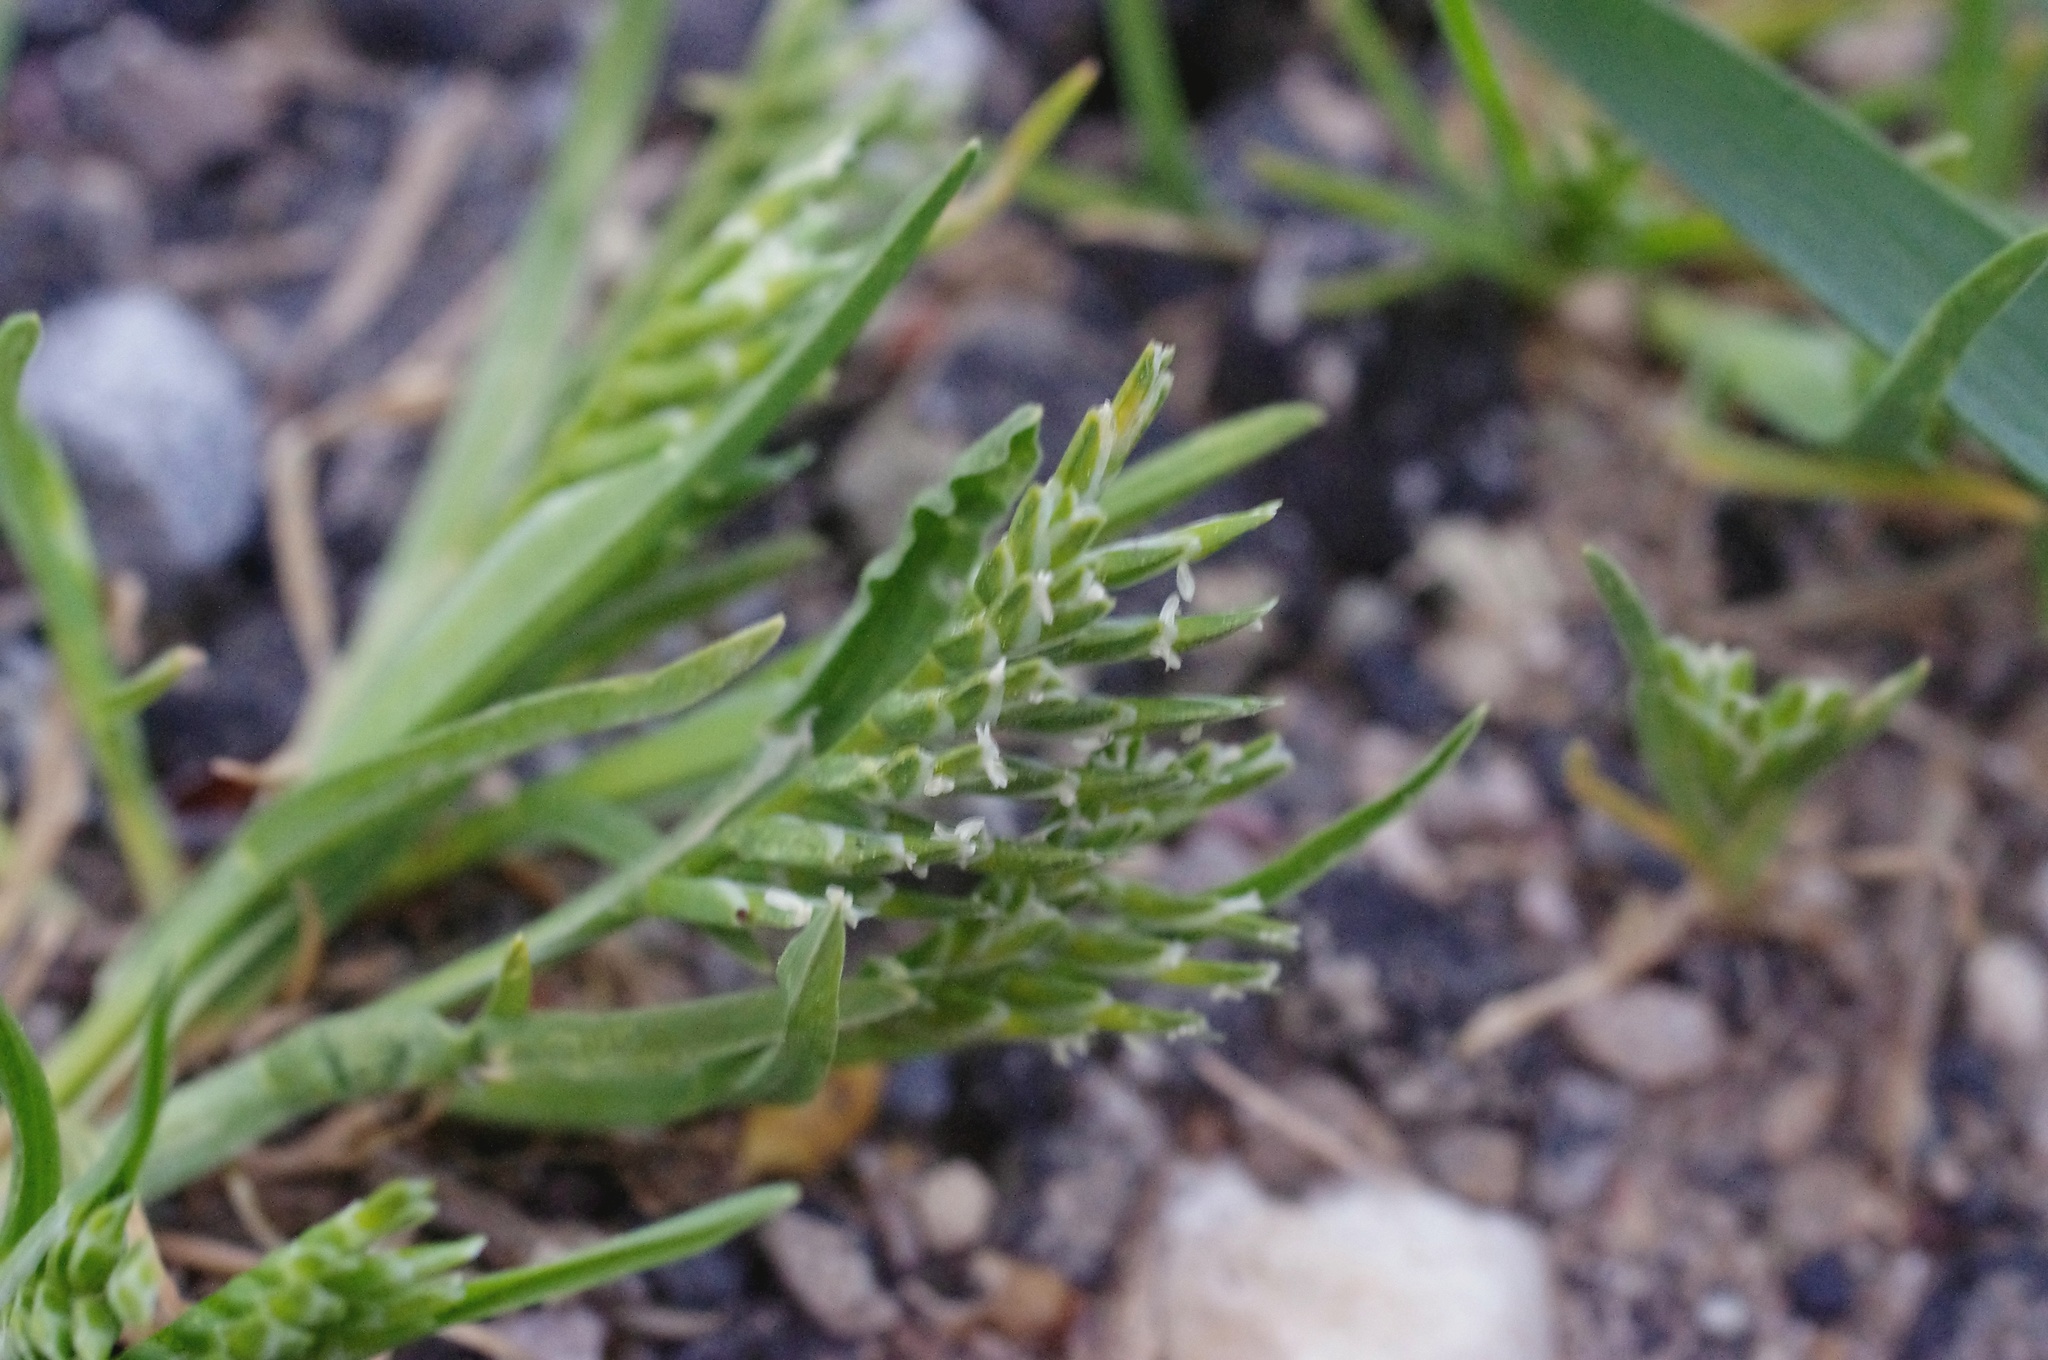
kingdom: Plantae
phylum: Tracheophyta
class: Liliopsida
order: Poales
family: Poaceae
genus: Sclerochloa
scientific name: Sclerochloa dura
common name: Common hardgrass
